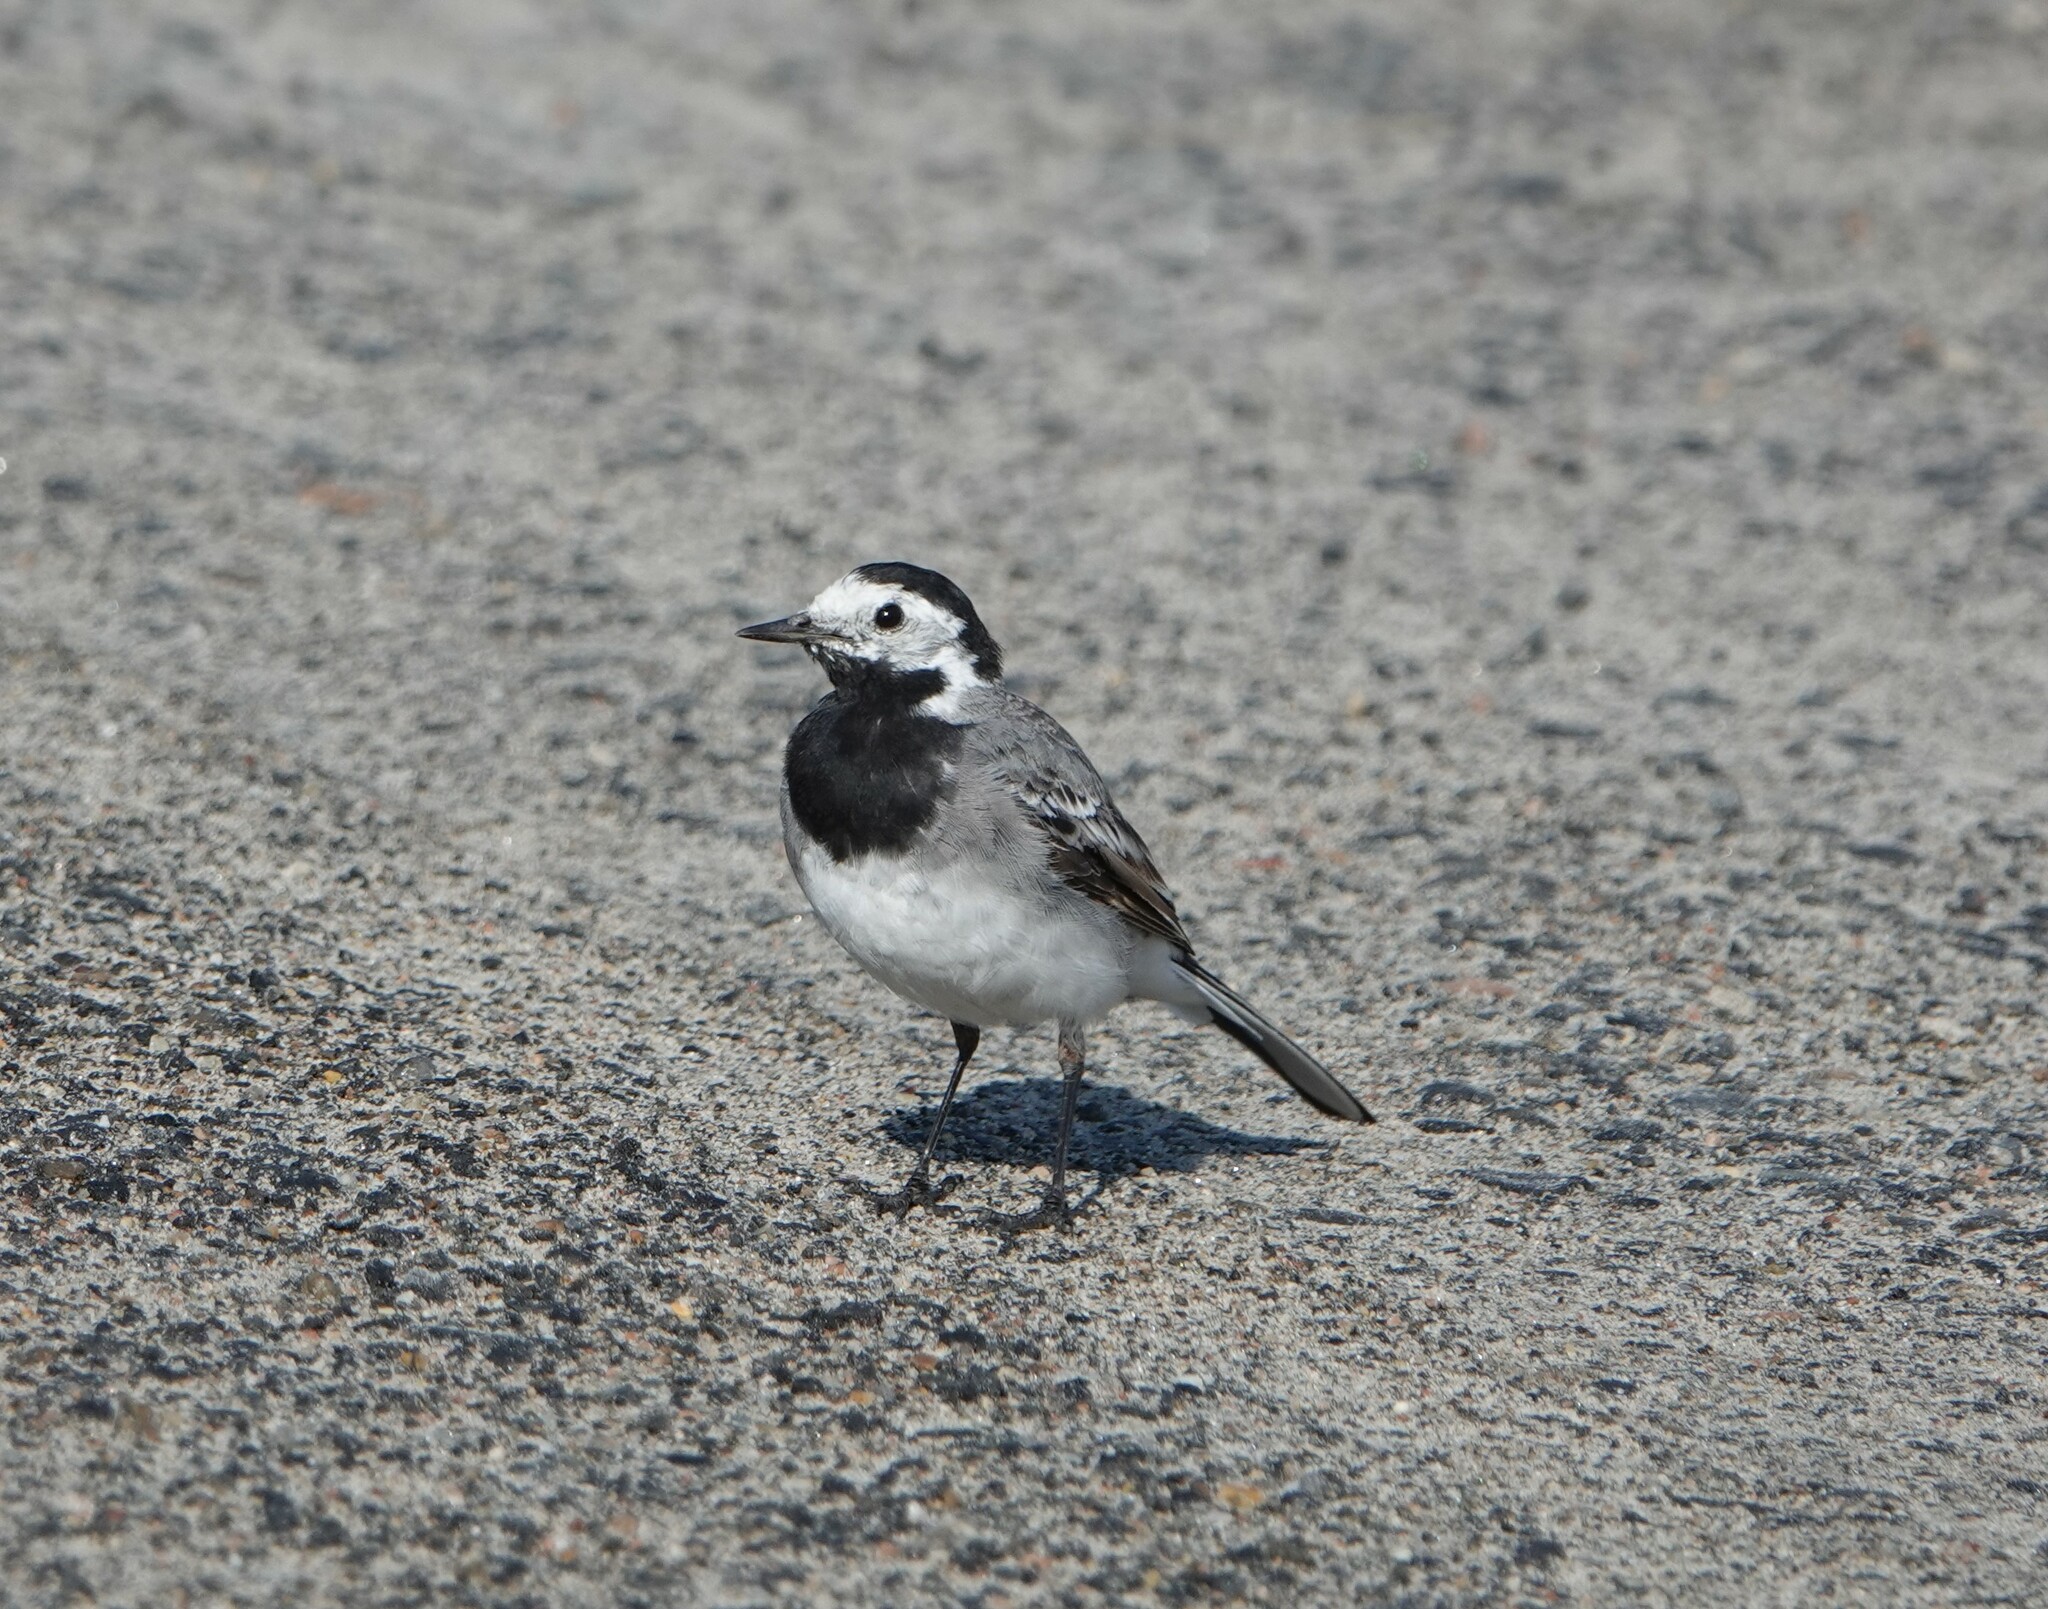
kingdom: Animalia
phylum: Chordata
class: Aves
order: Passeriformes
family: Motacillidae
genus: Motacilla
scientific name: Motacilla alba
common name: White wagtail
